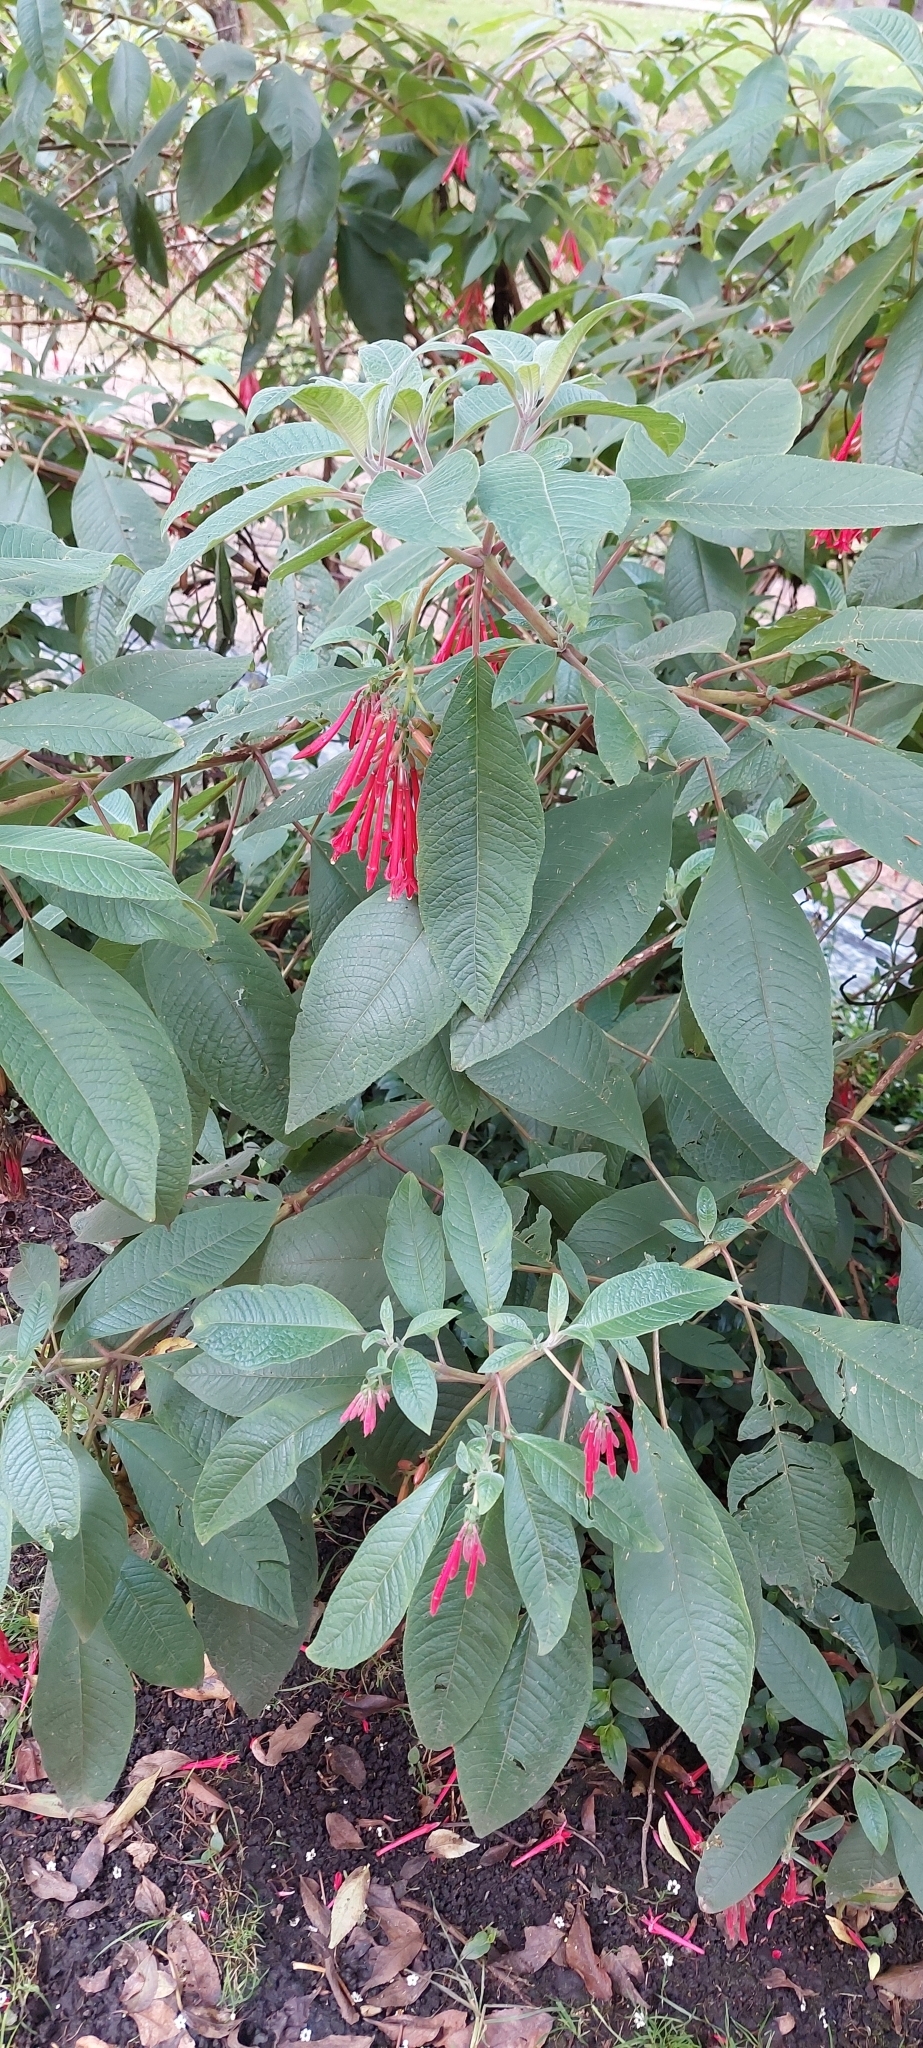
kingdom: Plantae
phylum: Tracheophyta
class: Magnoliopsida
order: Myrtales
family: Onagraceae
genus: Fuchsia
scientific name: Fuchsia boliviana
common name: Bolivian fuchsia
